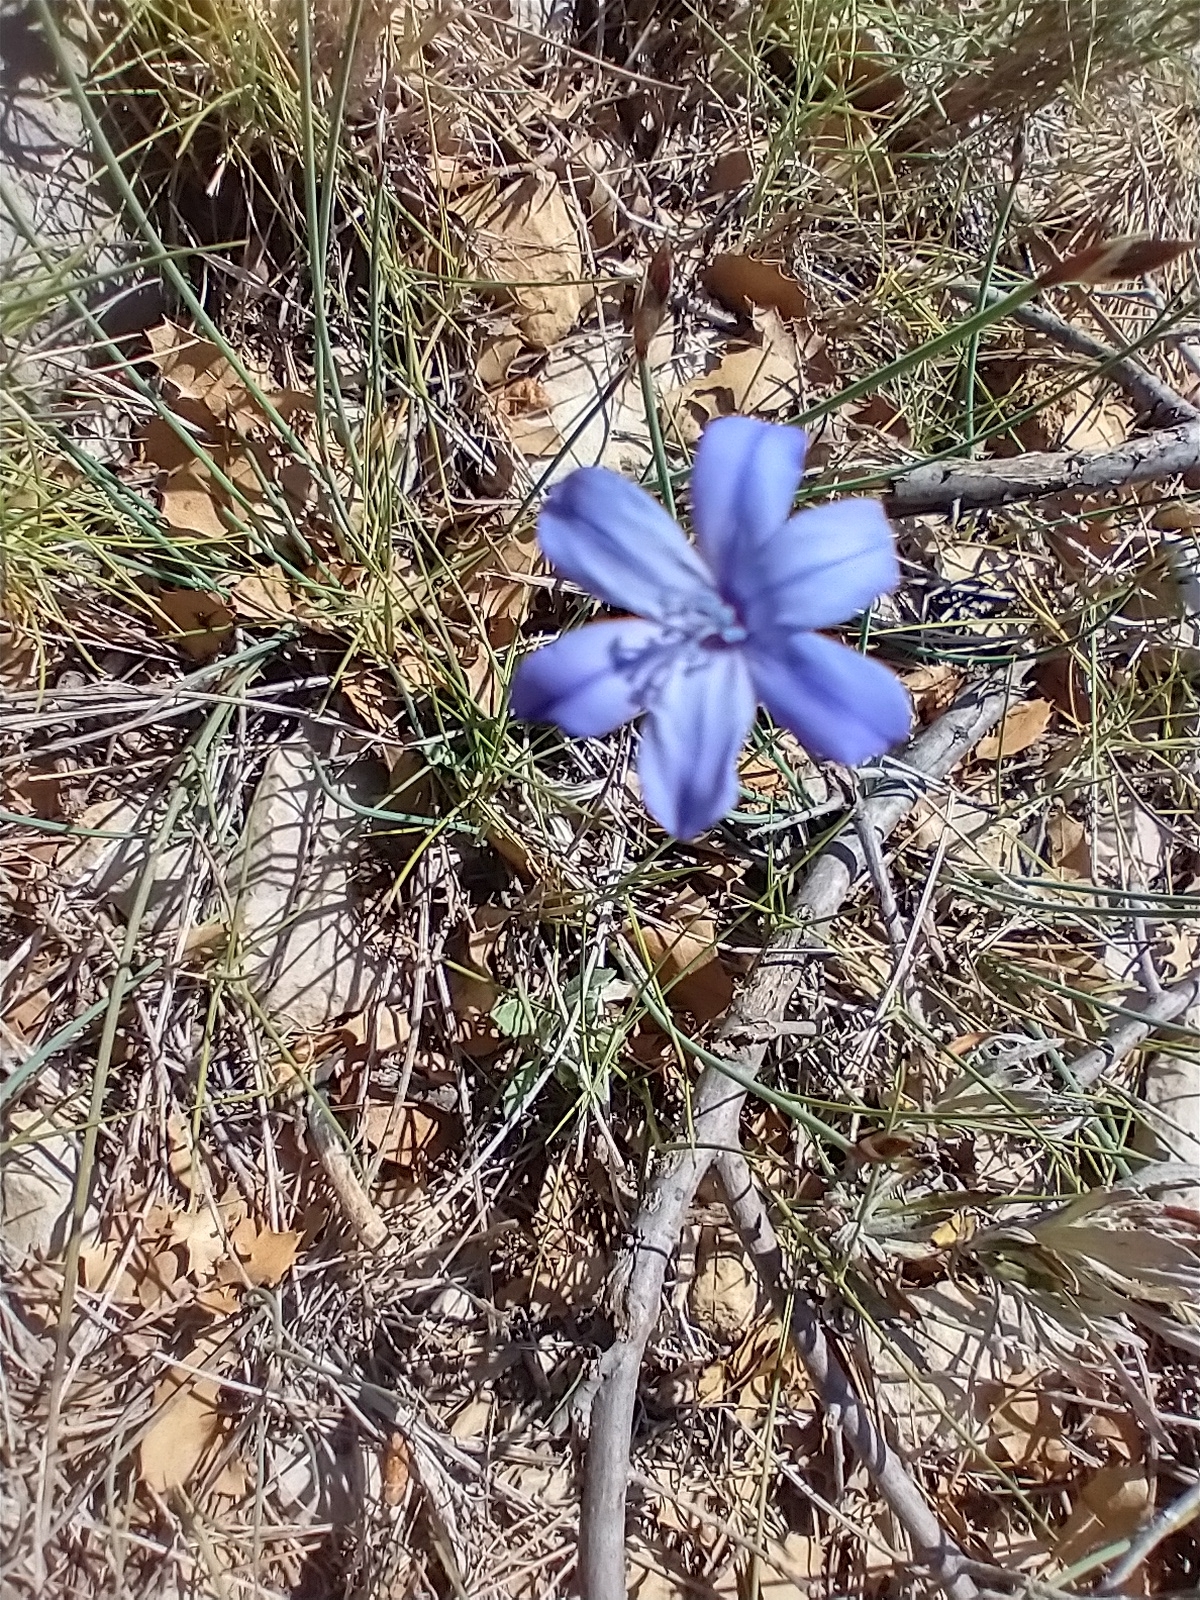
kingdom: Plantae
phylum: Tracheophyta
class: Liliopsida
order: Asparagales
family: Asparagaceae
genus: Aphyllanthes
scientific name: Aphyllanthes monspeliensis
